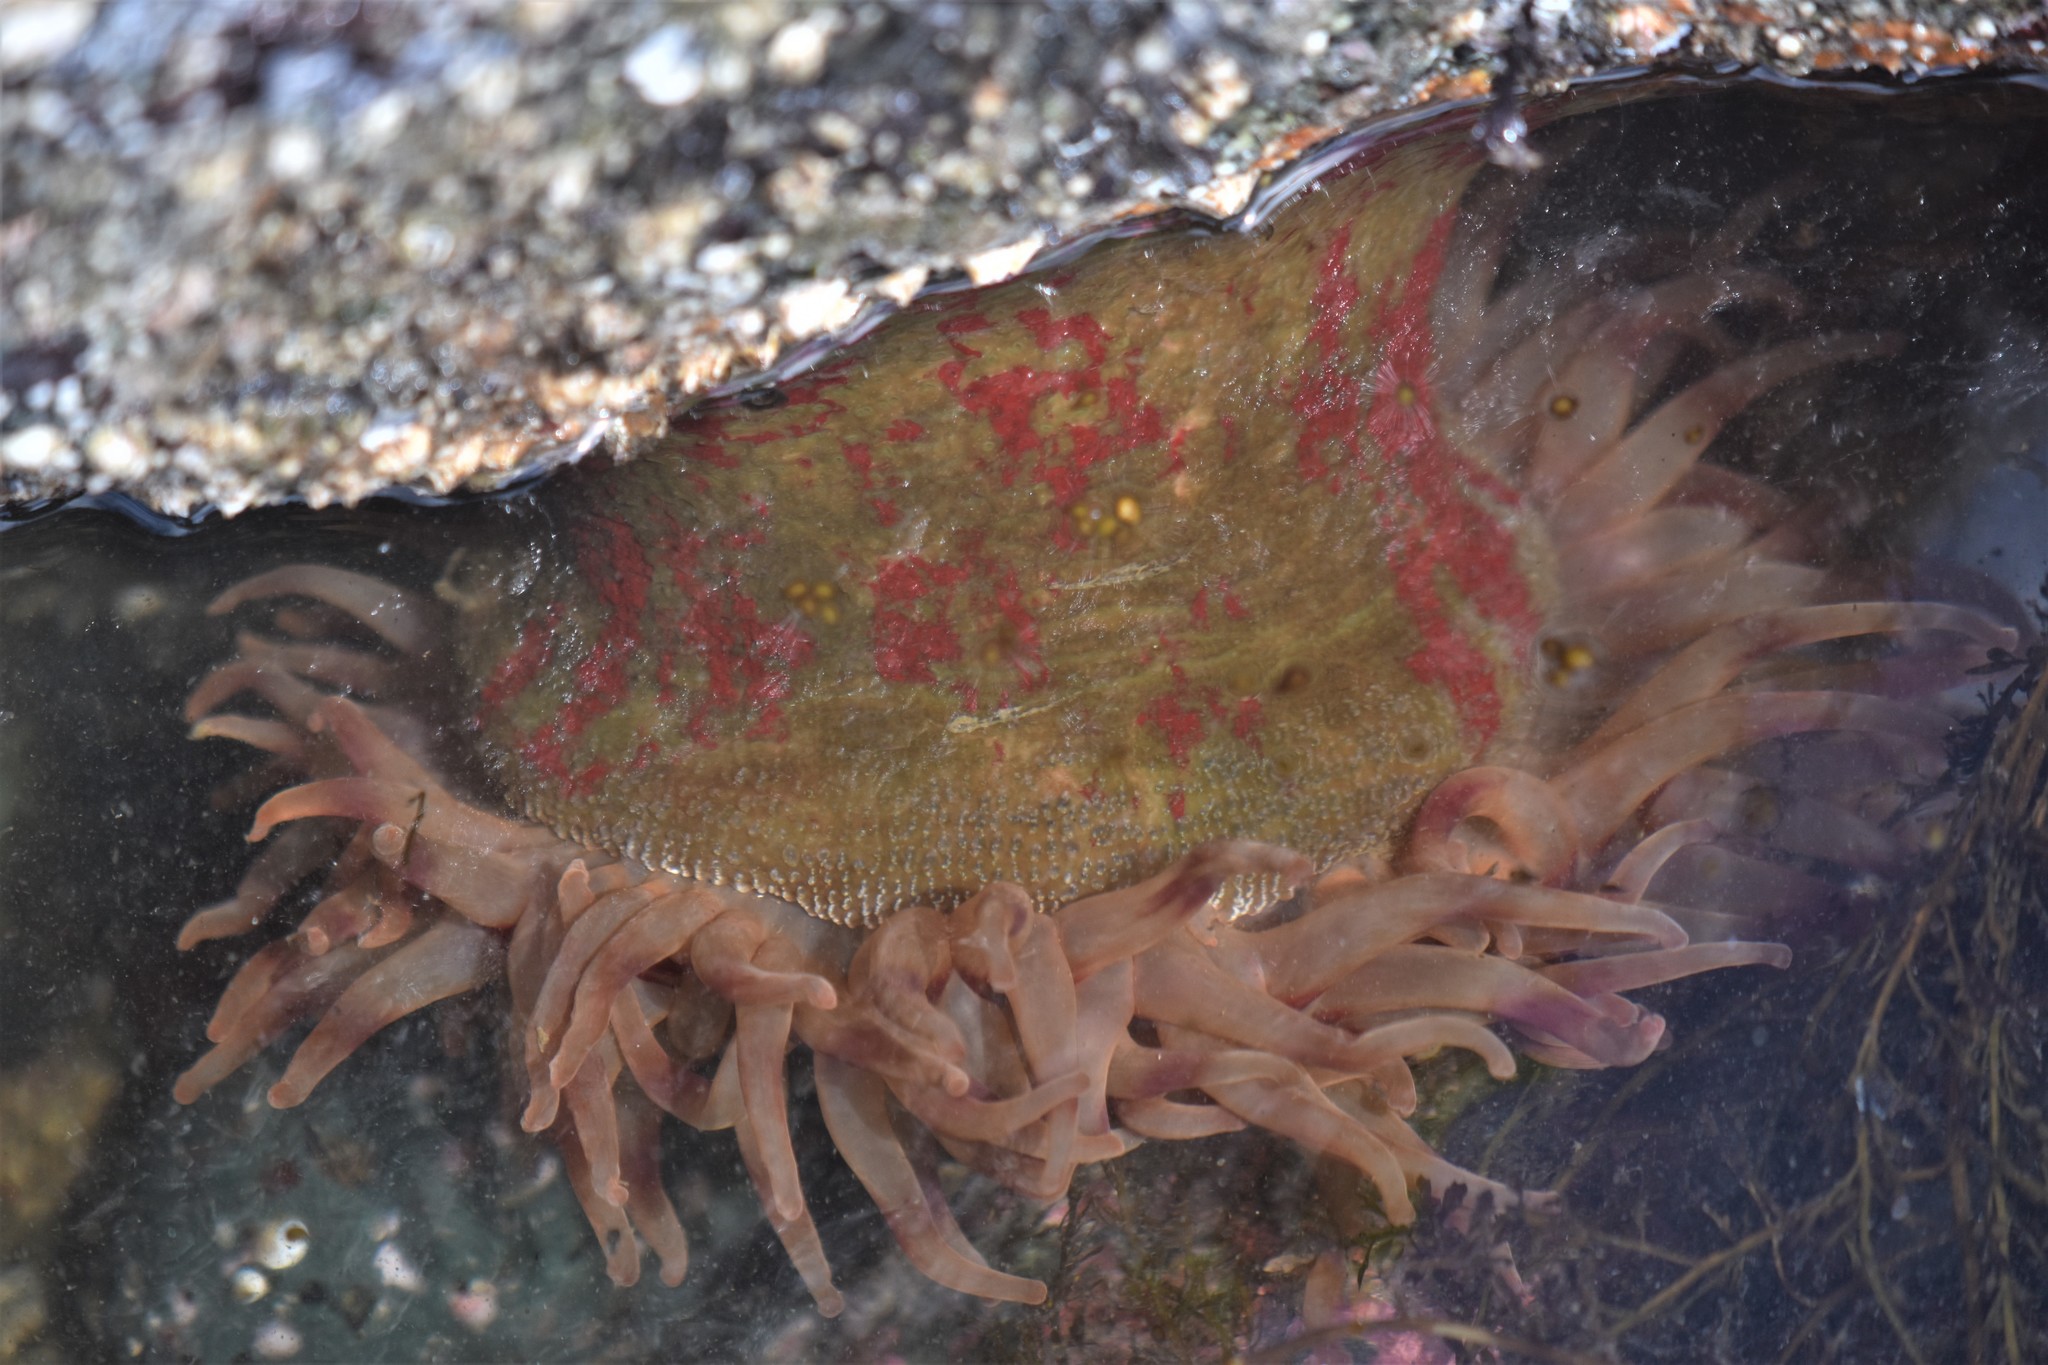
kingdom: Animalia
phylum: Cnidaria
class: Anthozoa
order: Actiniaria
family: Actiniidae
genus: Urticina
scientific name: Urticina grebelnyi
